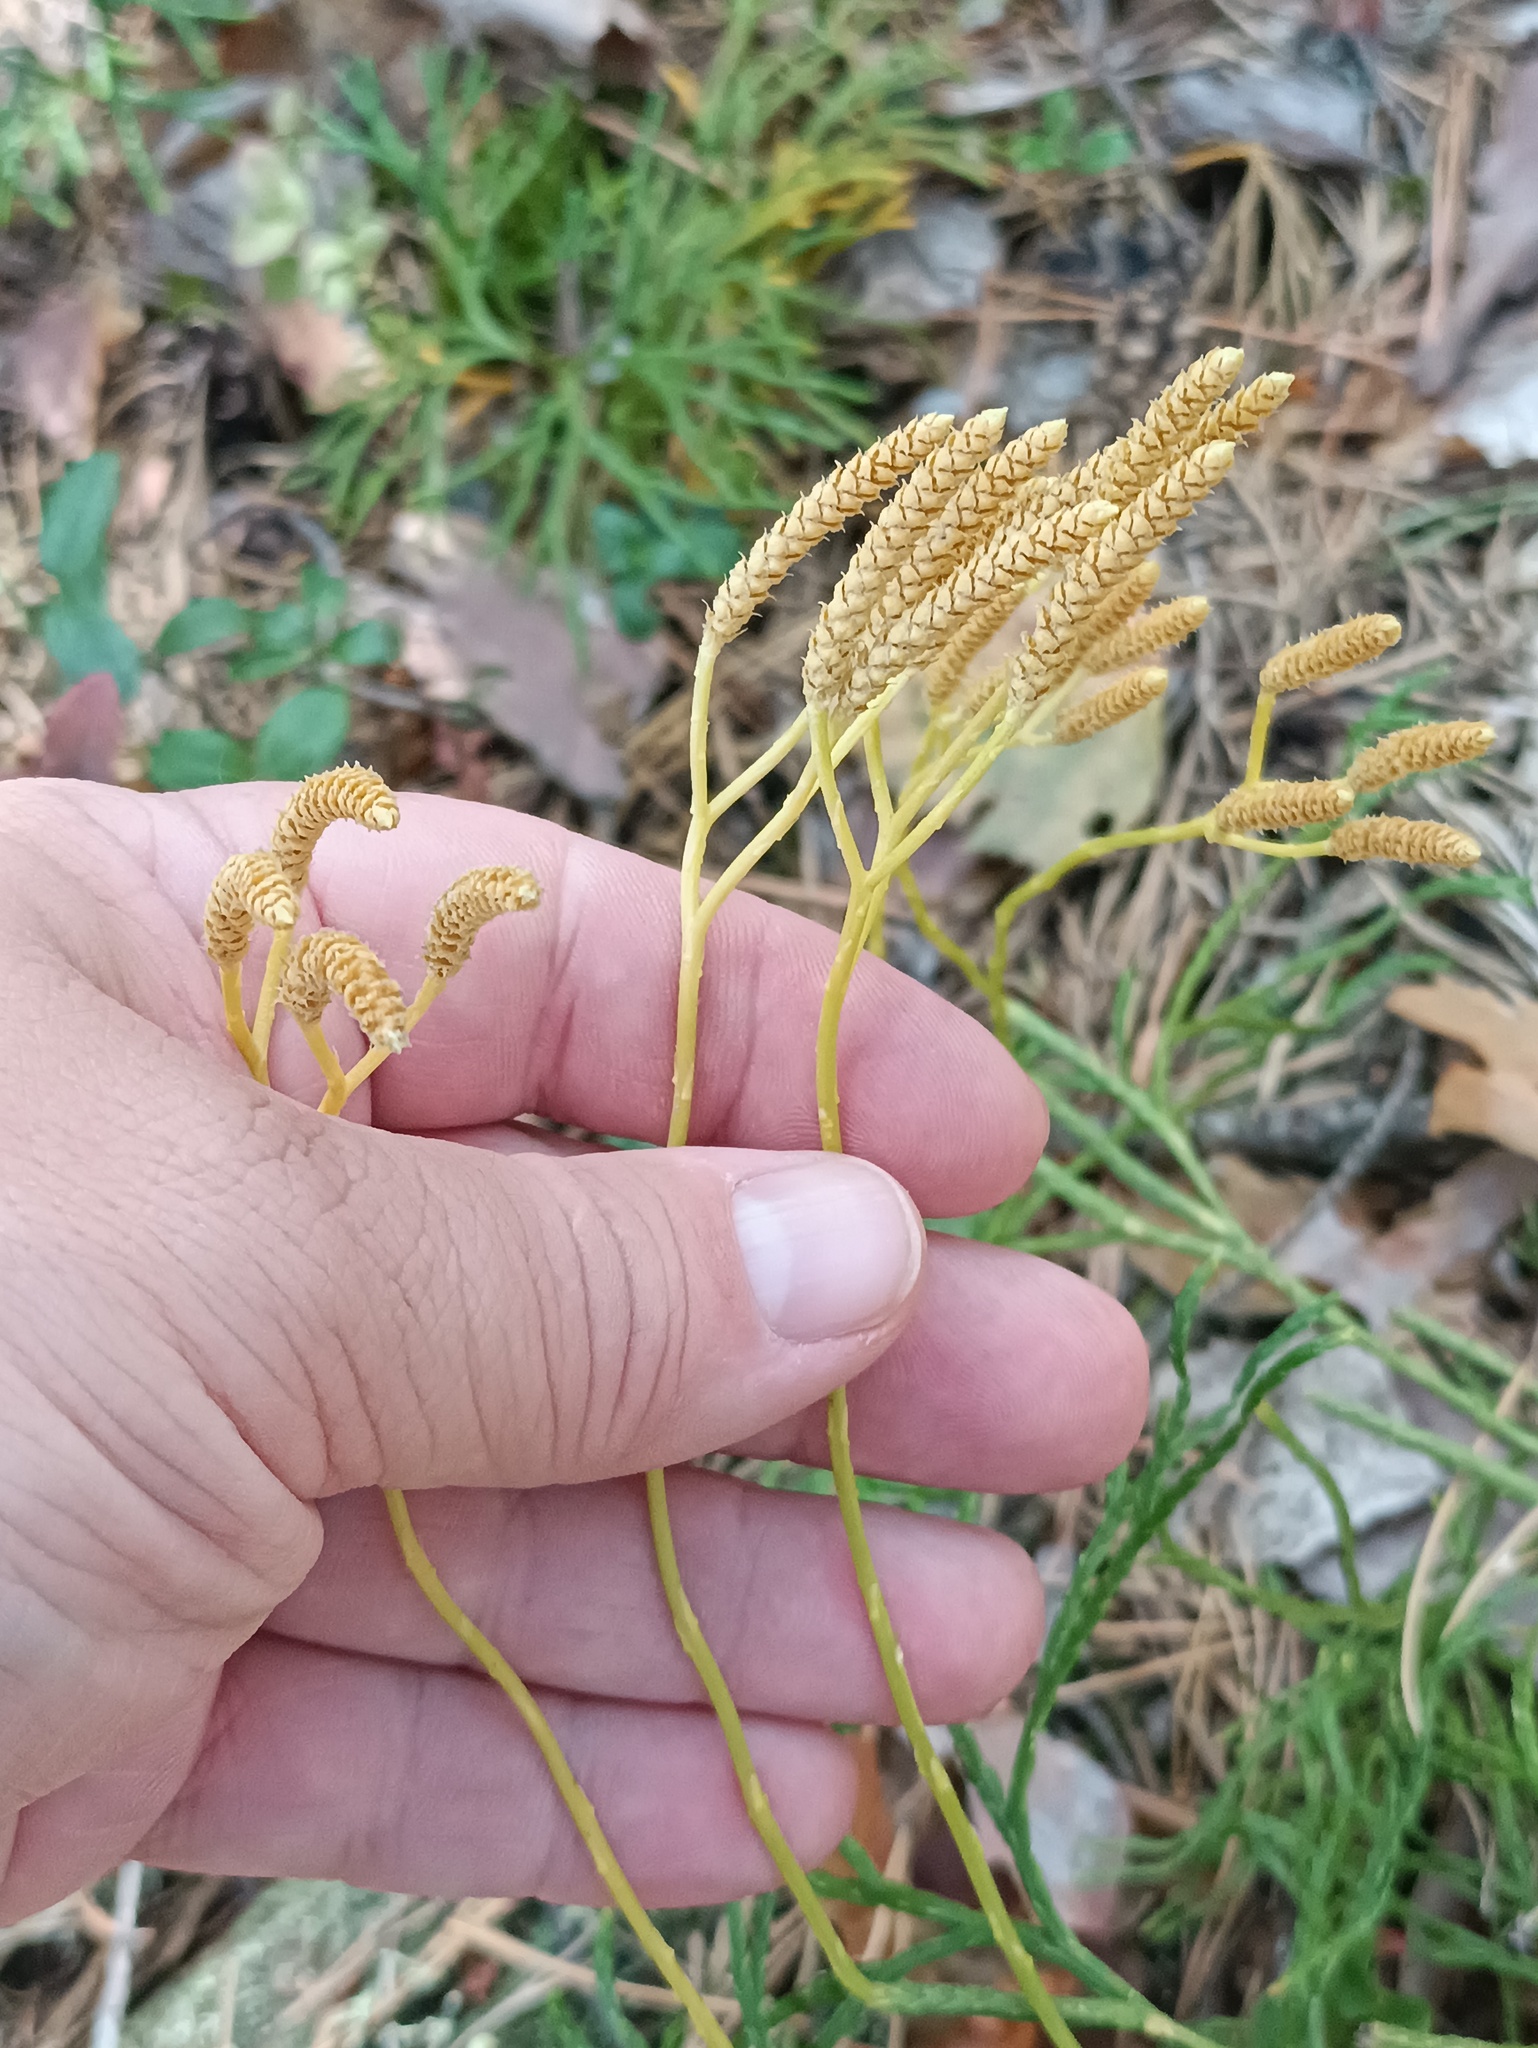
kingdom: Plantae
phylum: Tracheophyta
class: Lycopodiopsida
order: Lycopodiales
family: Lycopodiaceae
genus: Diphasiastrum
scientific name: Diphasiastrum complanatum
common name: Northern running-pine
